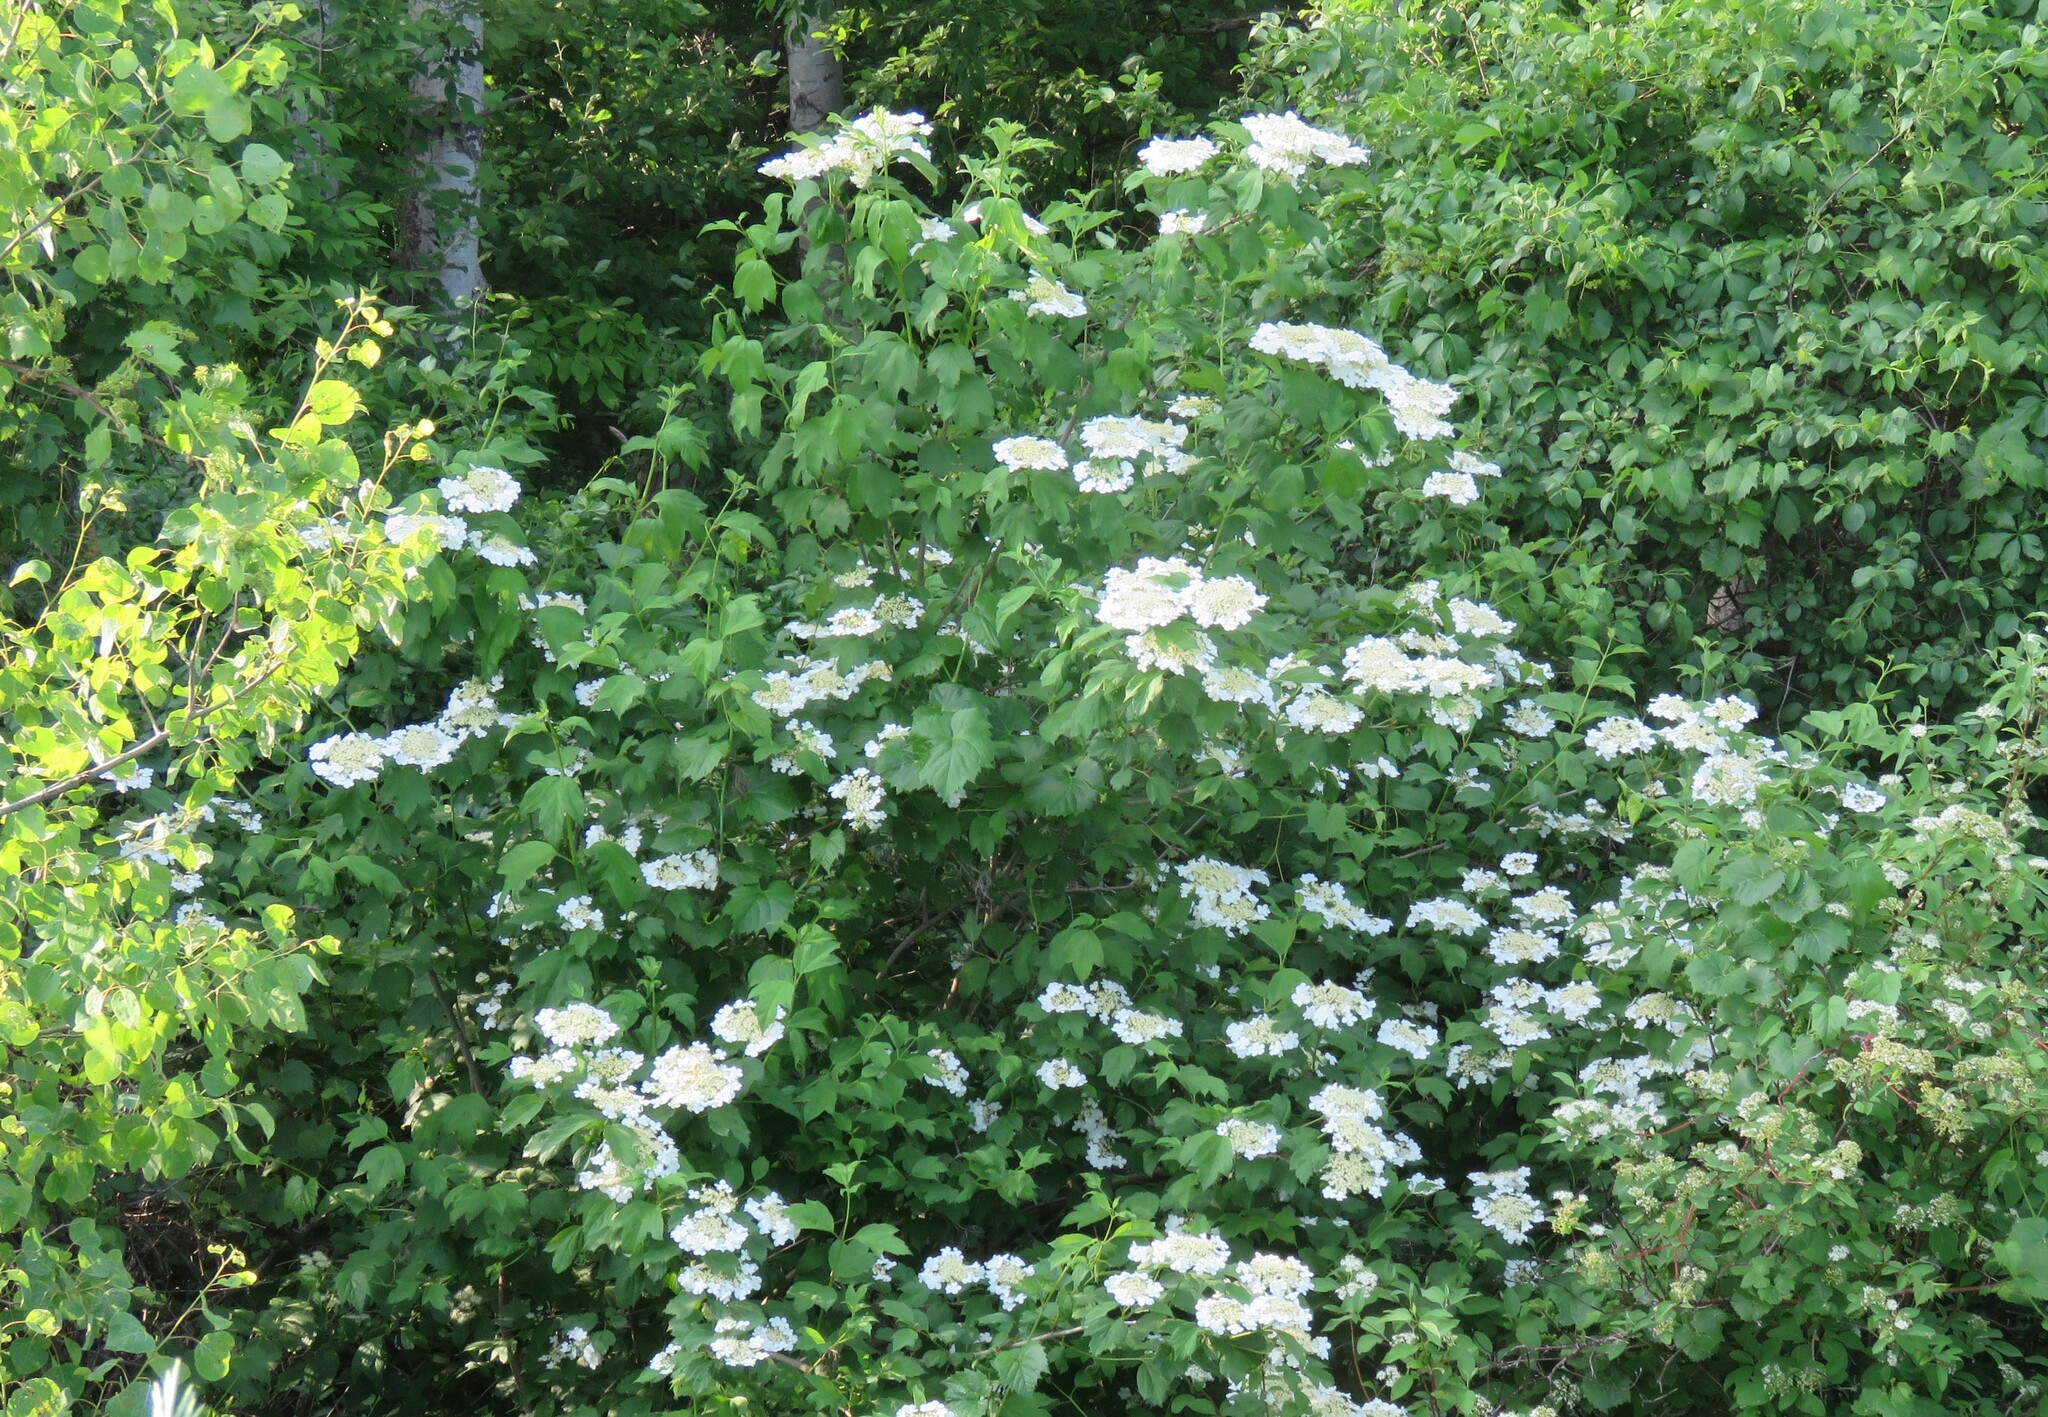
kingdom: Plantae
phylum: Tracheophyta
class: Magnoliopsida
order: Dipsacales
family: Viburnaceae
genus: Viburnum
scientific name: Viburnum opulus
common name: Guelder-rose
